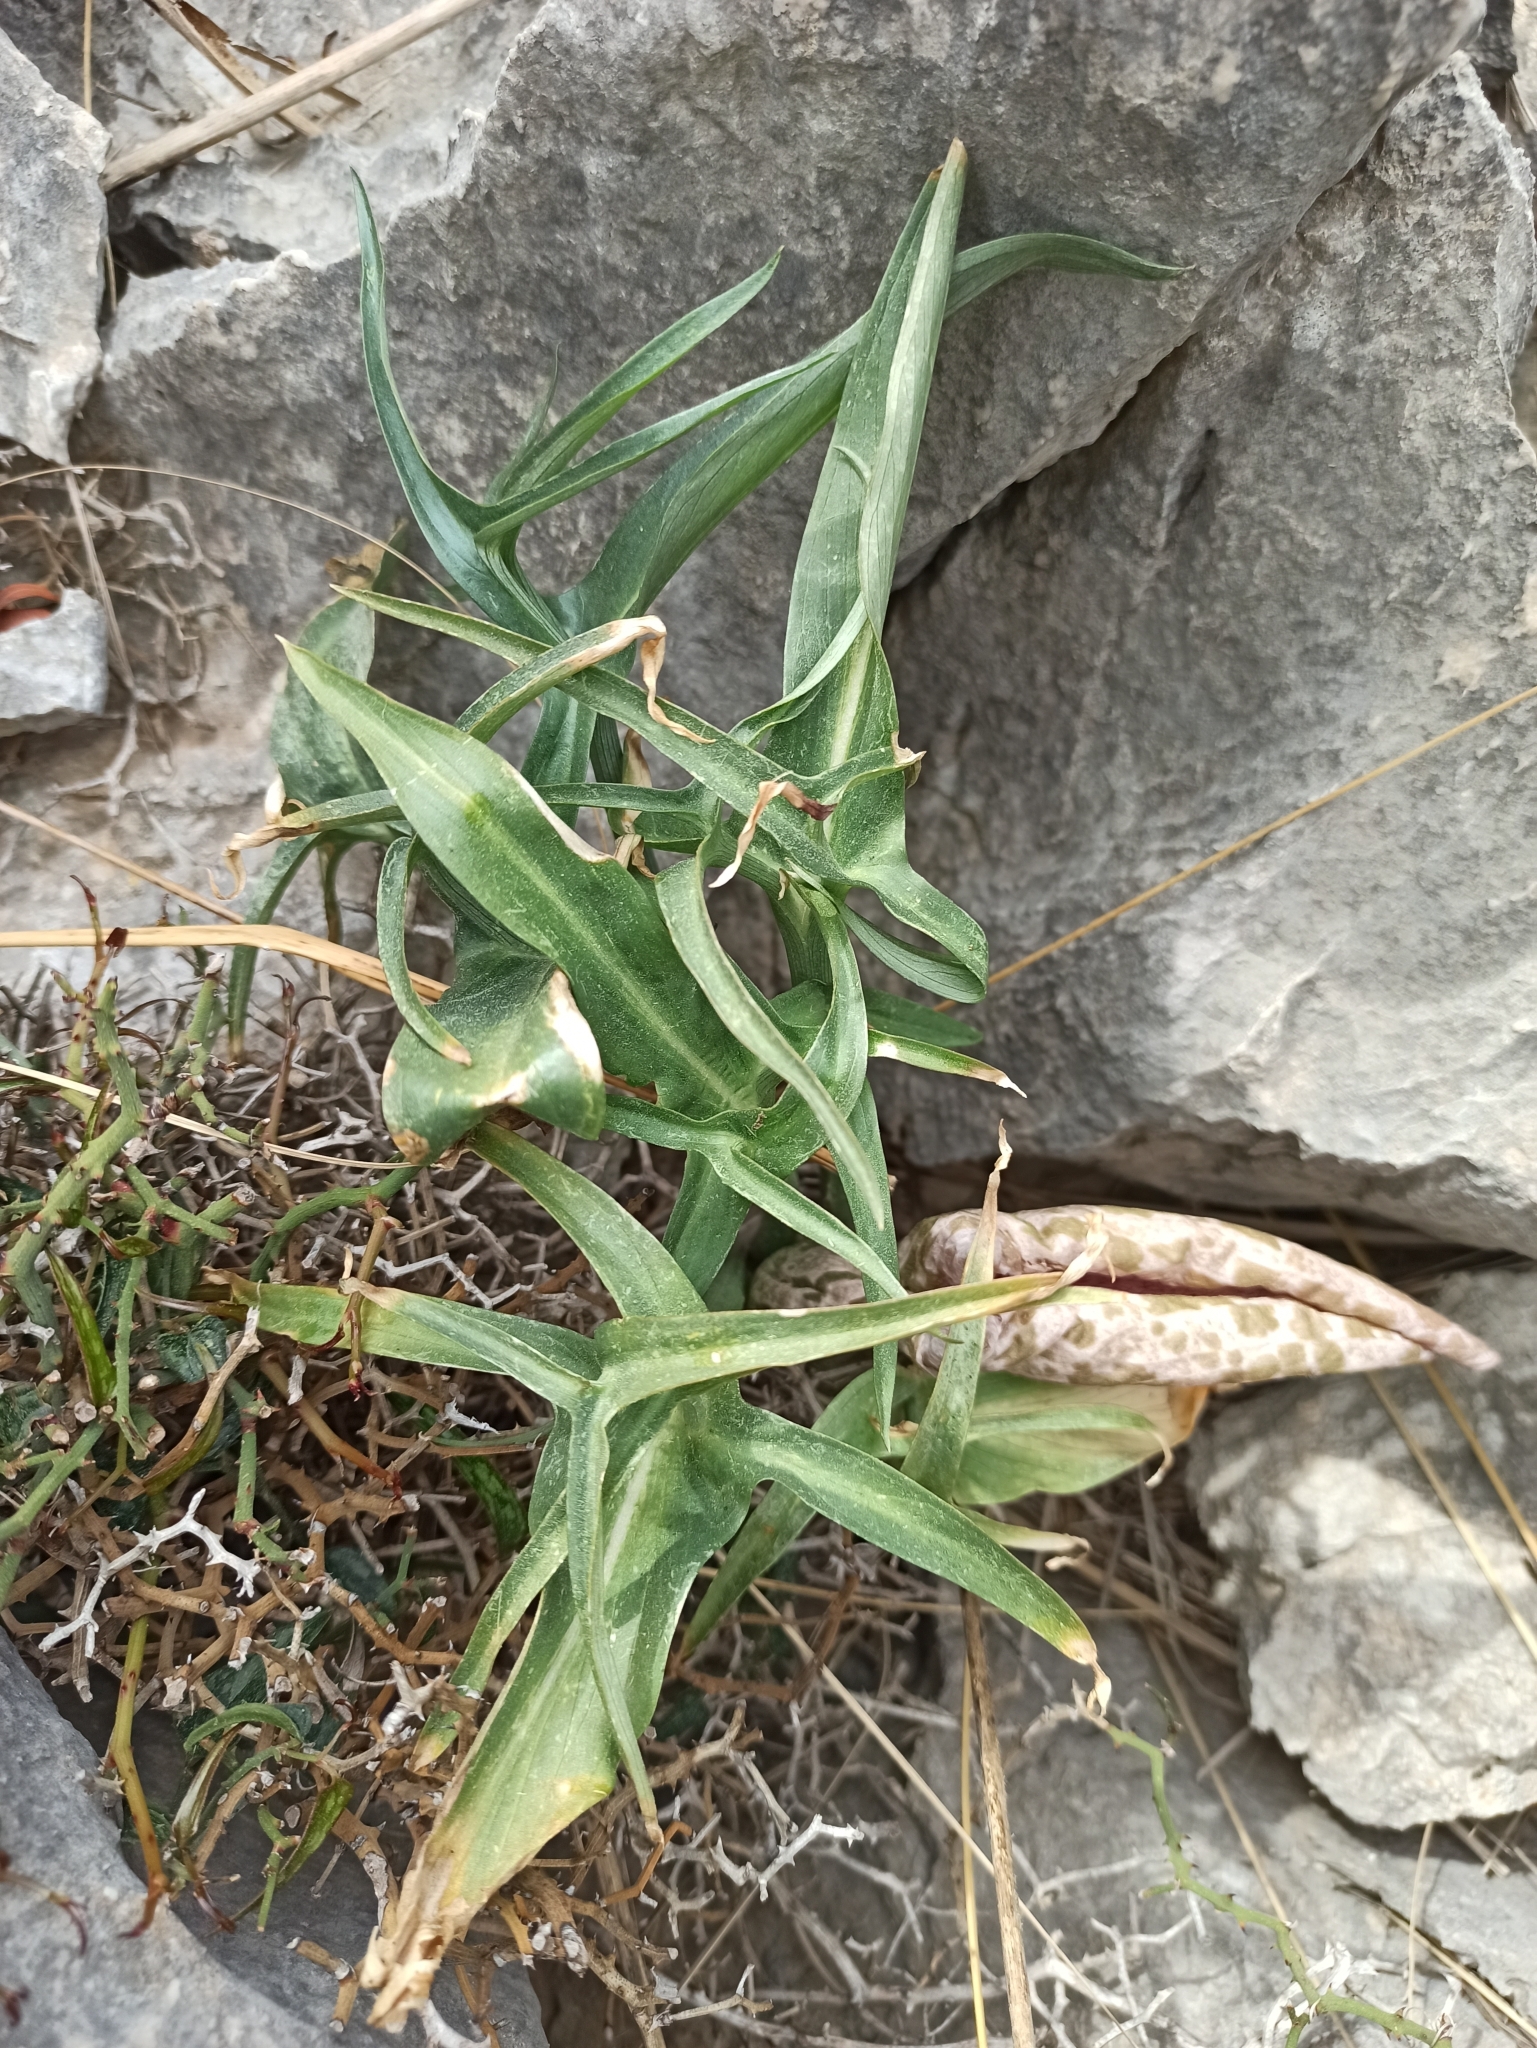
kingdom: Plantae
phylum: Tracheophyta
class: Liliopsida
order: Alismatales
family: Araceae
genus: Helicodiceros
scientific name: Helicodiceros muscivorus
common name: Snakeroot
